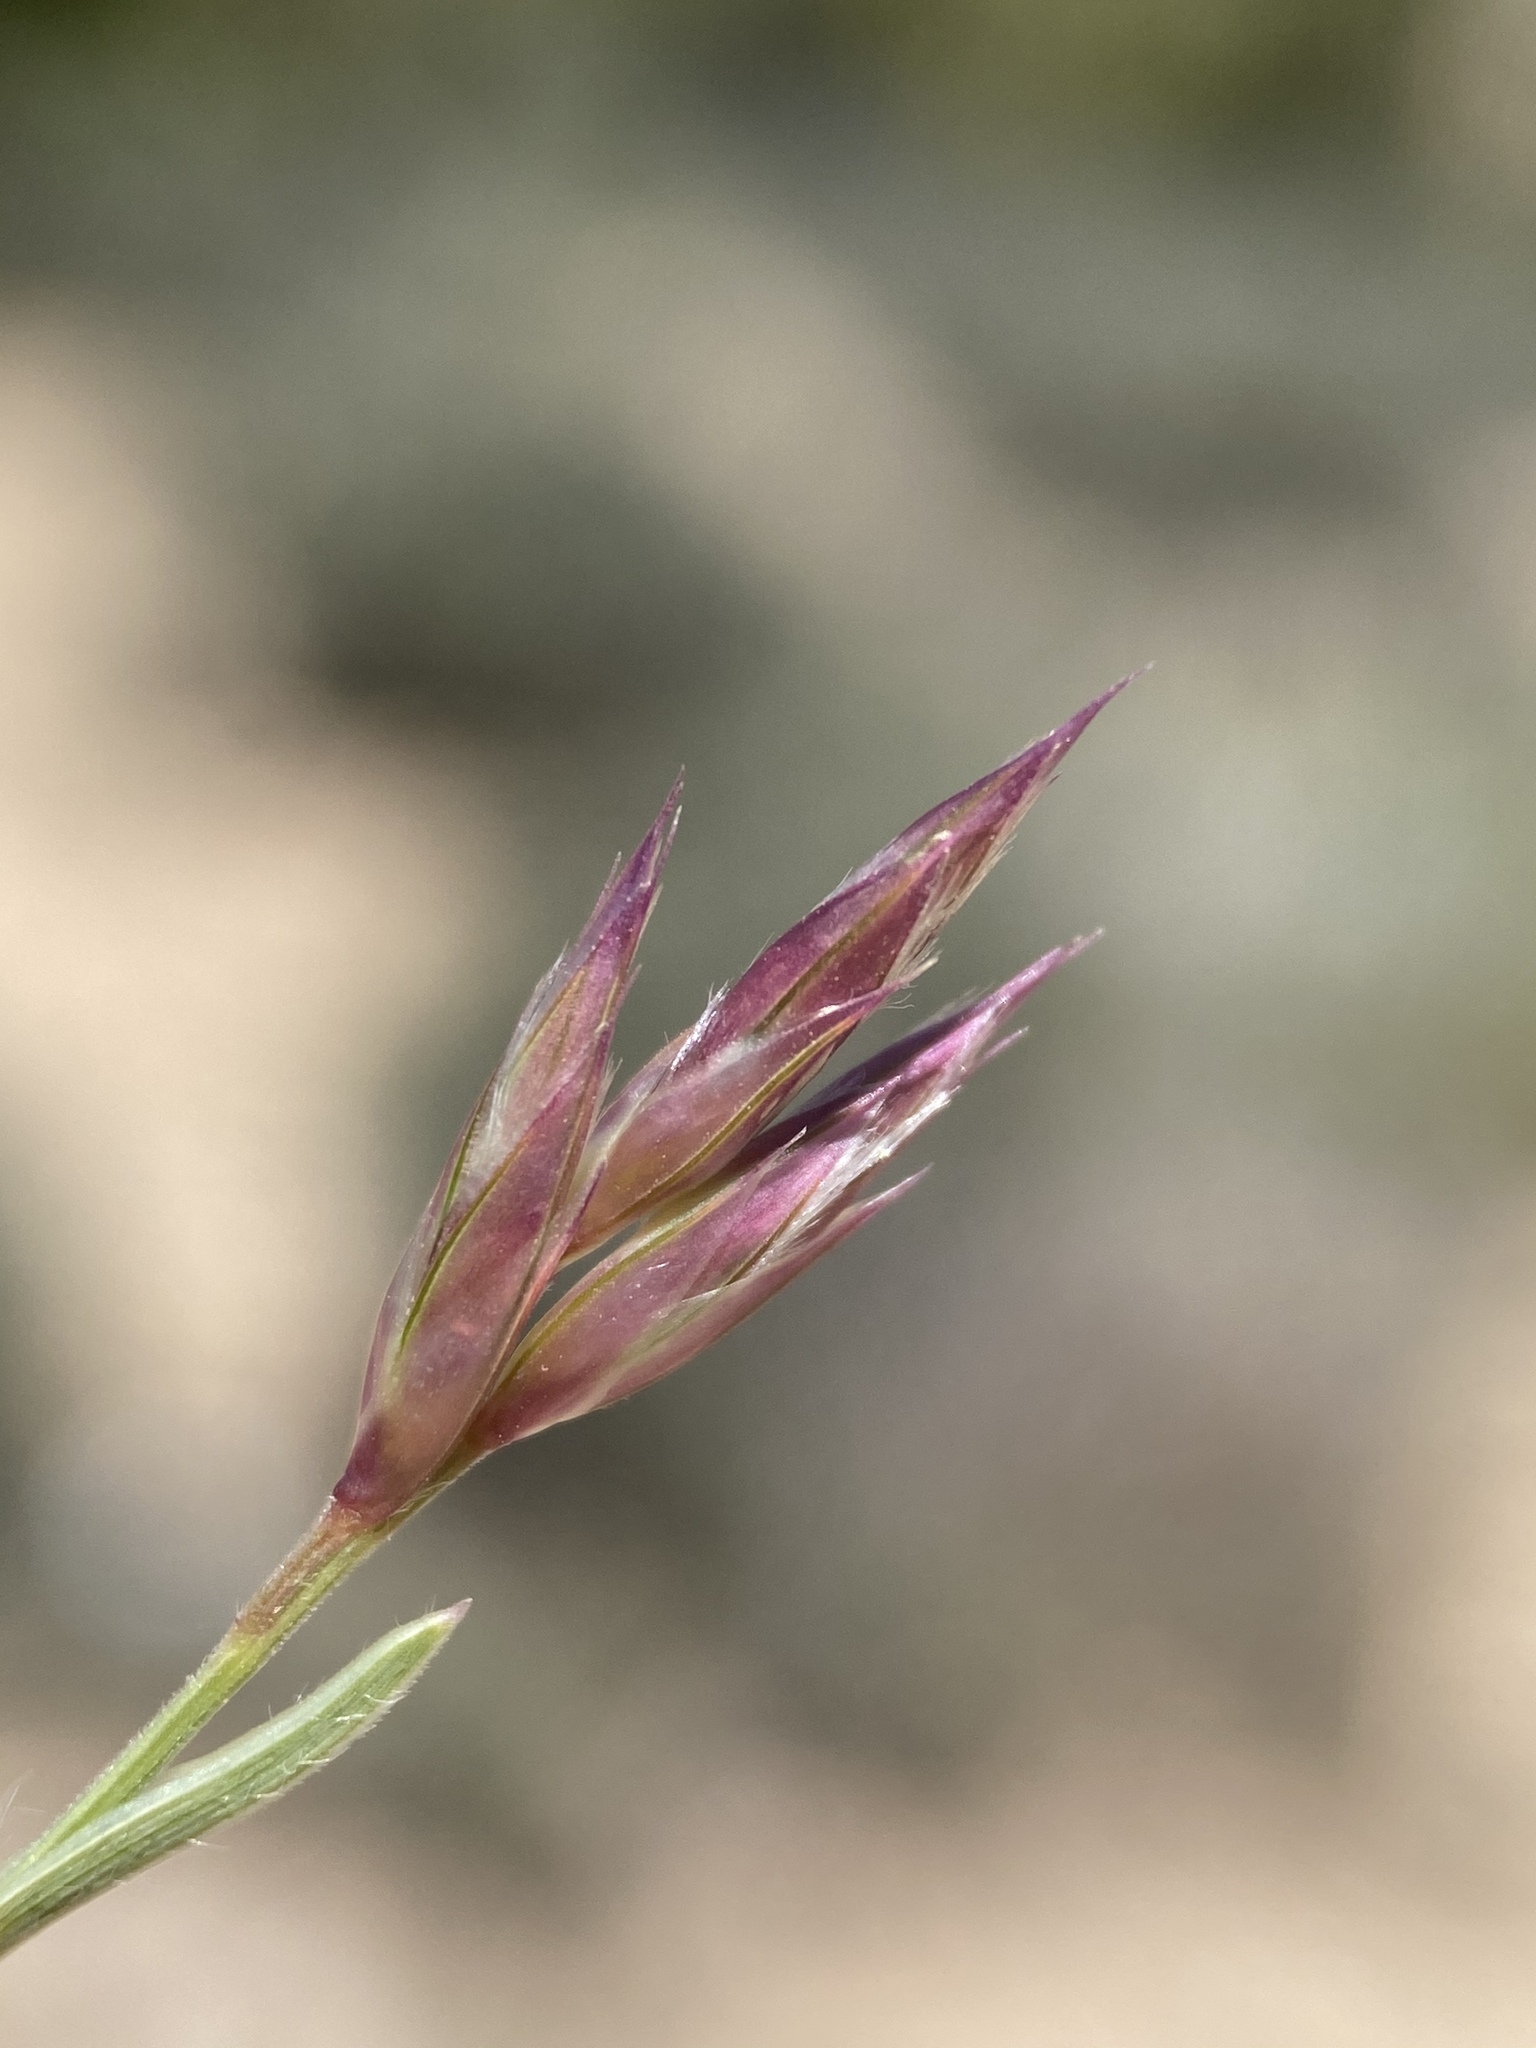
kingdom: Plantae
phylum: Tracheophyta
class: Liliopsida
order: Poales
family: Poaceae
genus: Erioneuron
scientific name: Erioneuron pilosum
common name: Hairy woolly grass
